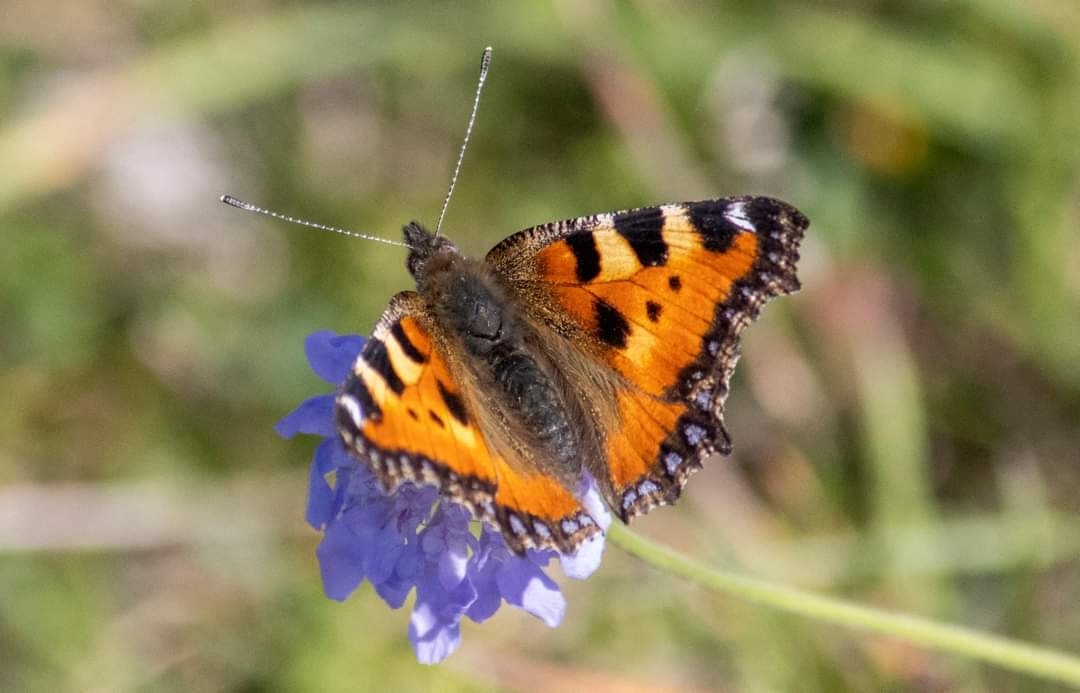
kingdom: Animalia
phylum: Arthropoda
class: Insecta
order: Lepidoptera
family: Nymphalidae
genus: Aglais
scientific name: Aglais urticae
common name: Small tortoiseshell
